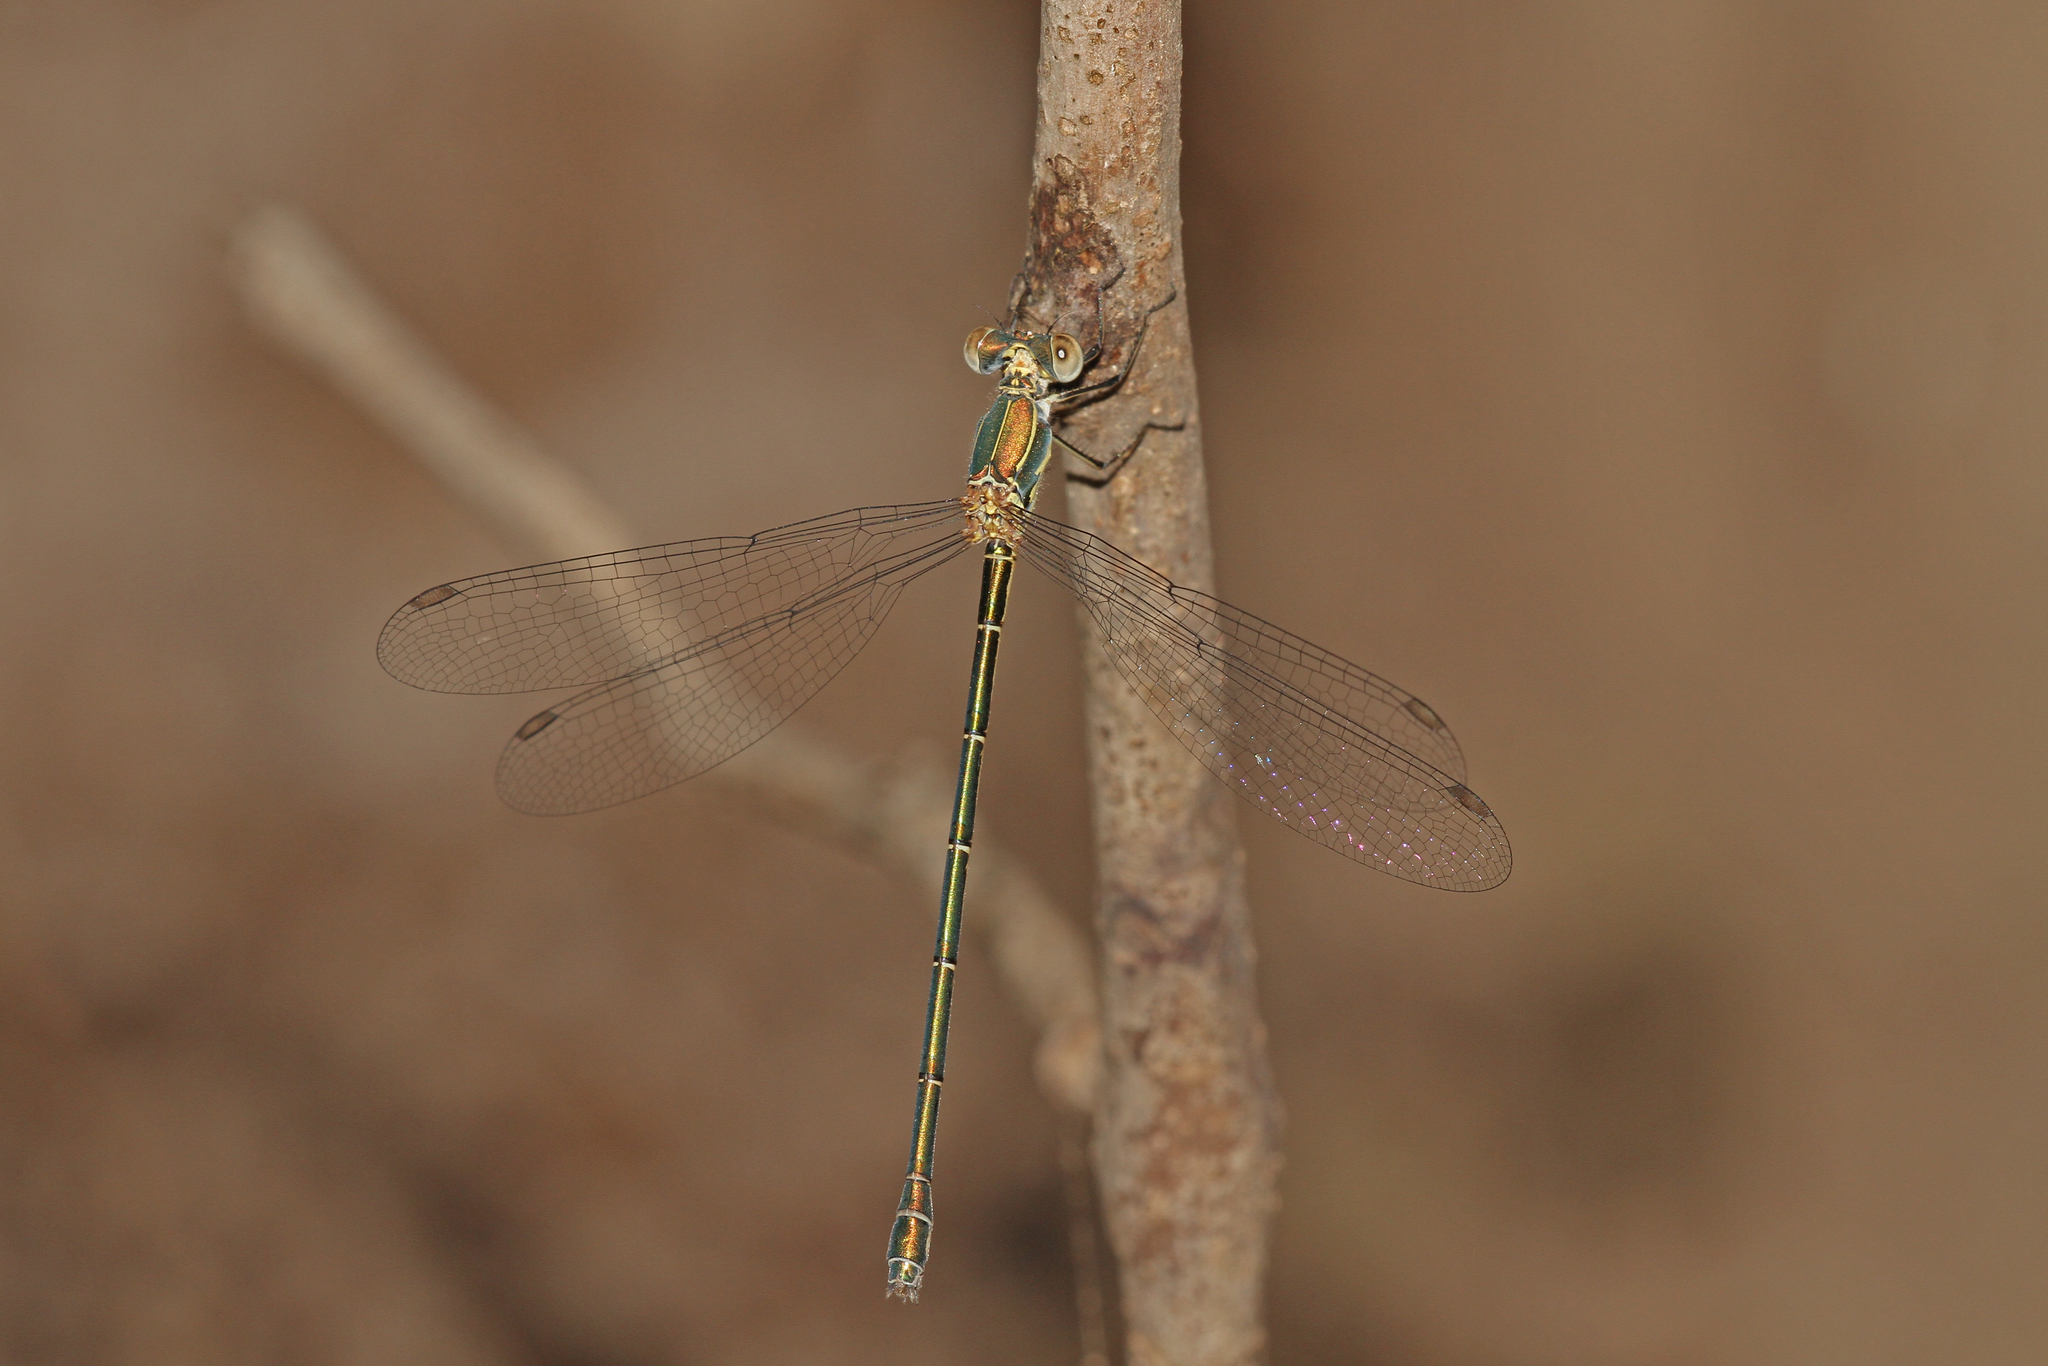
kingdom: Animalia
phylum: Arthropoda
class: Insecta
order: Odonata
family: Lestidae
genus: Chalcolestes
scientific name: Chalcolestes parvidens
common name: Eastern willow spreadwing
